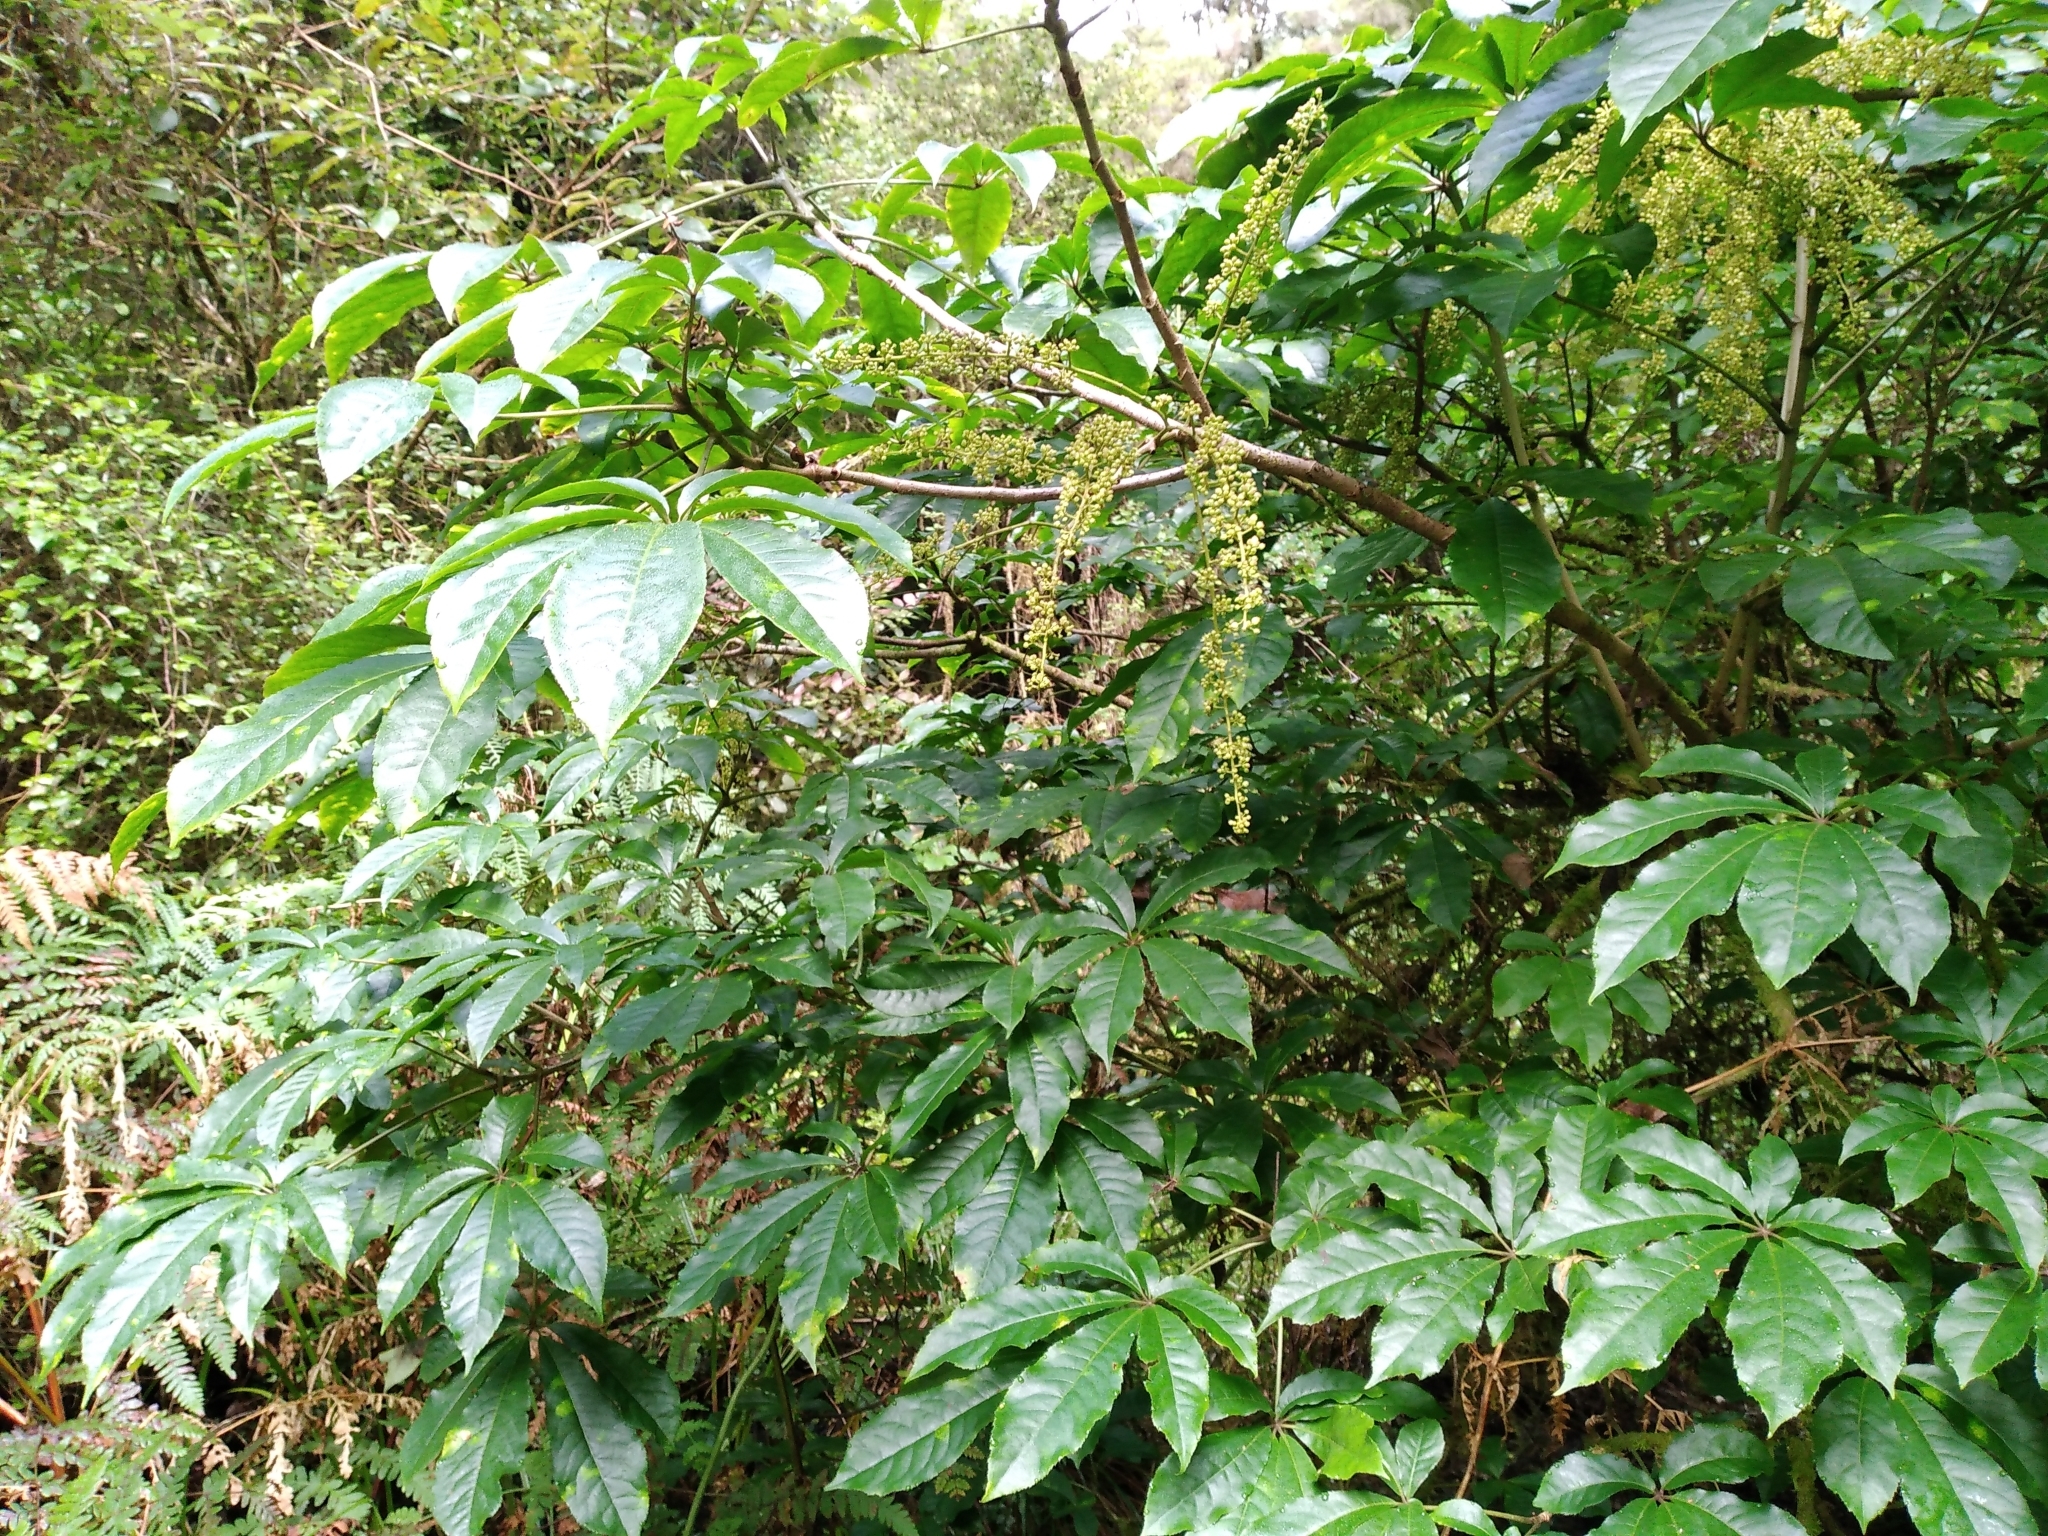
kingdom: Plantae
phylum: Tracheophyta
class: Magnoliopsida
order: Apiales
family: Araliaceae
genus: Schefflera
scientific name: Schefflera digitata
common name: Pate
